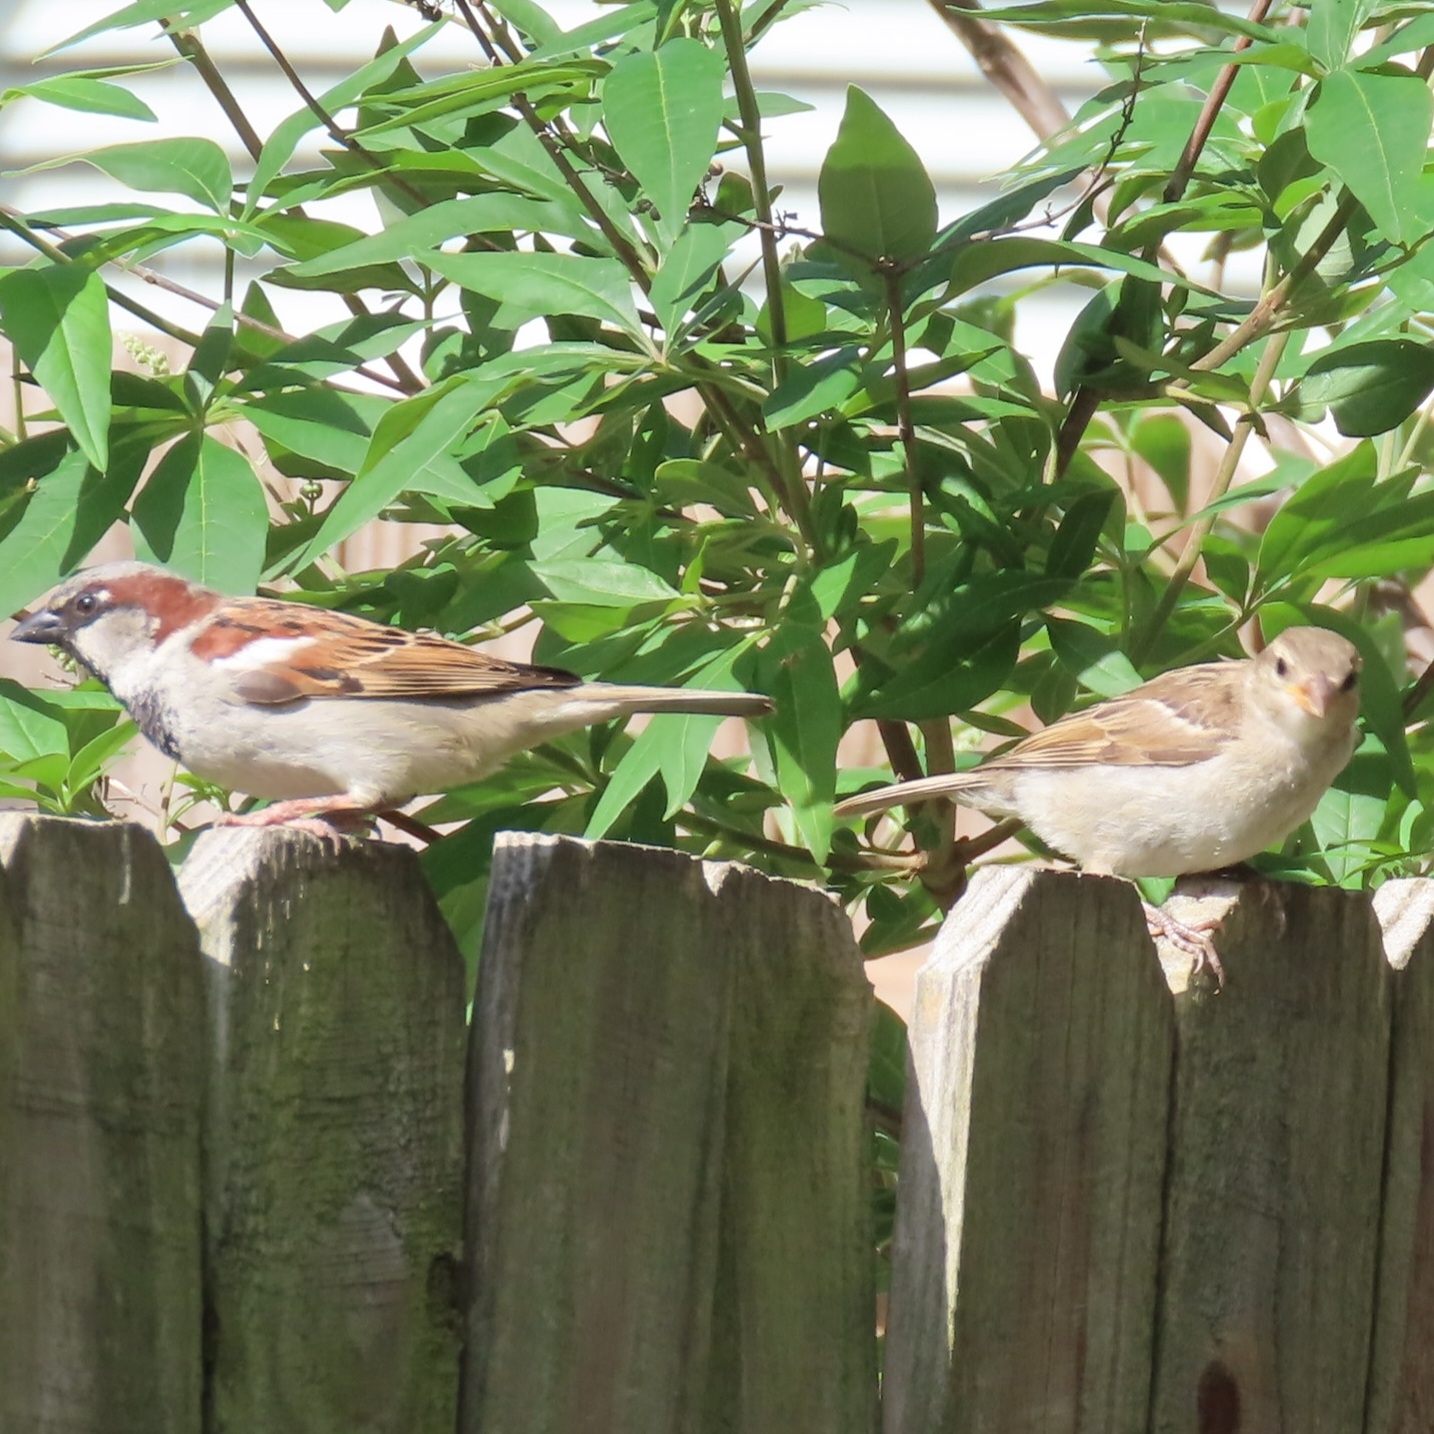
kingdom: Animalia
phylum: Chordata
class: Aves
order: Passeriformes
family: Passeridae
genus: Passer
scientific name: Passer domesticus
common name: House sparrow
